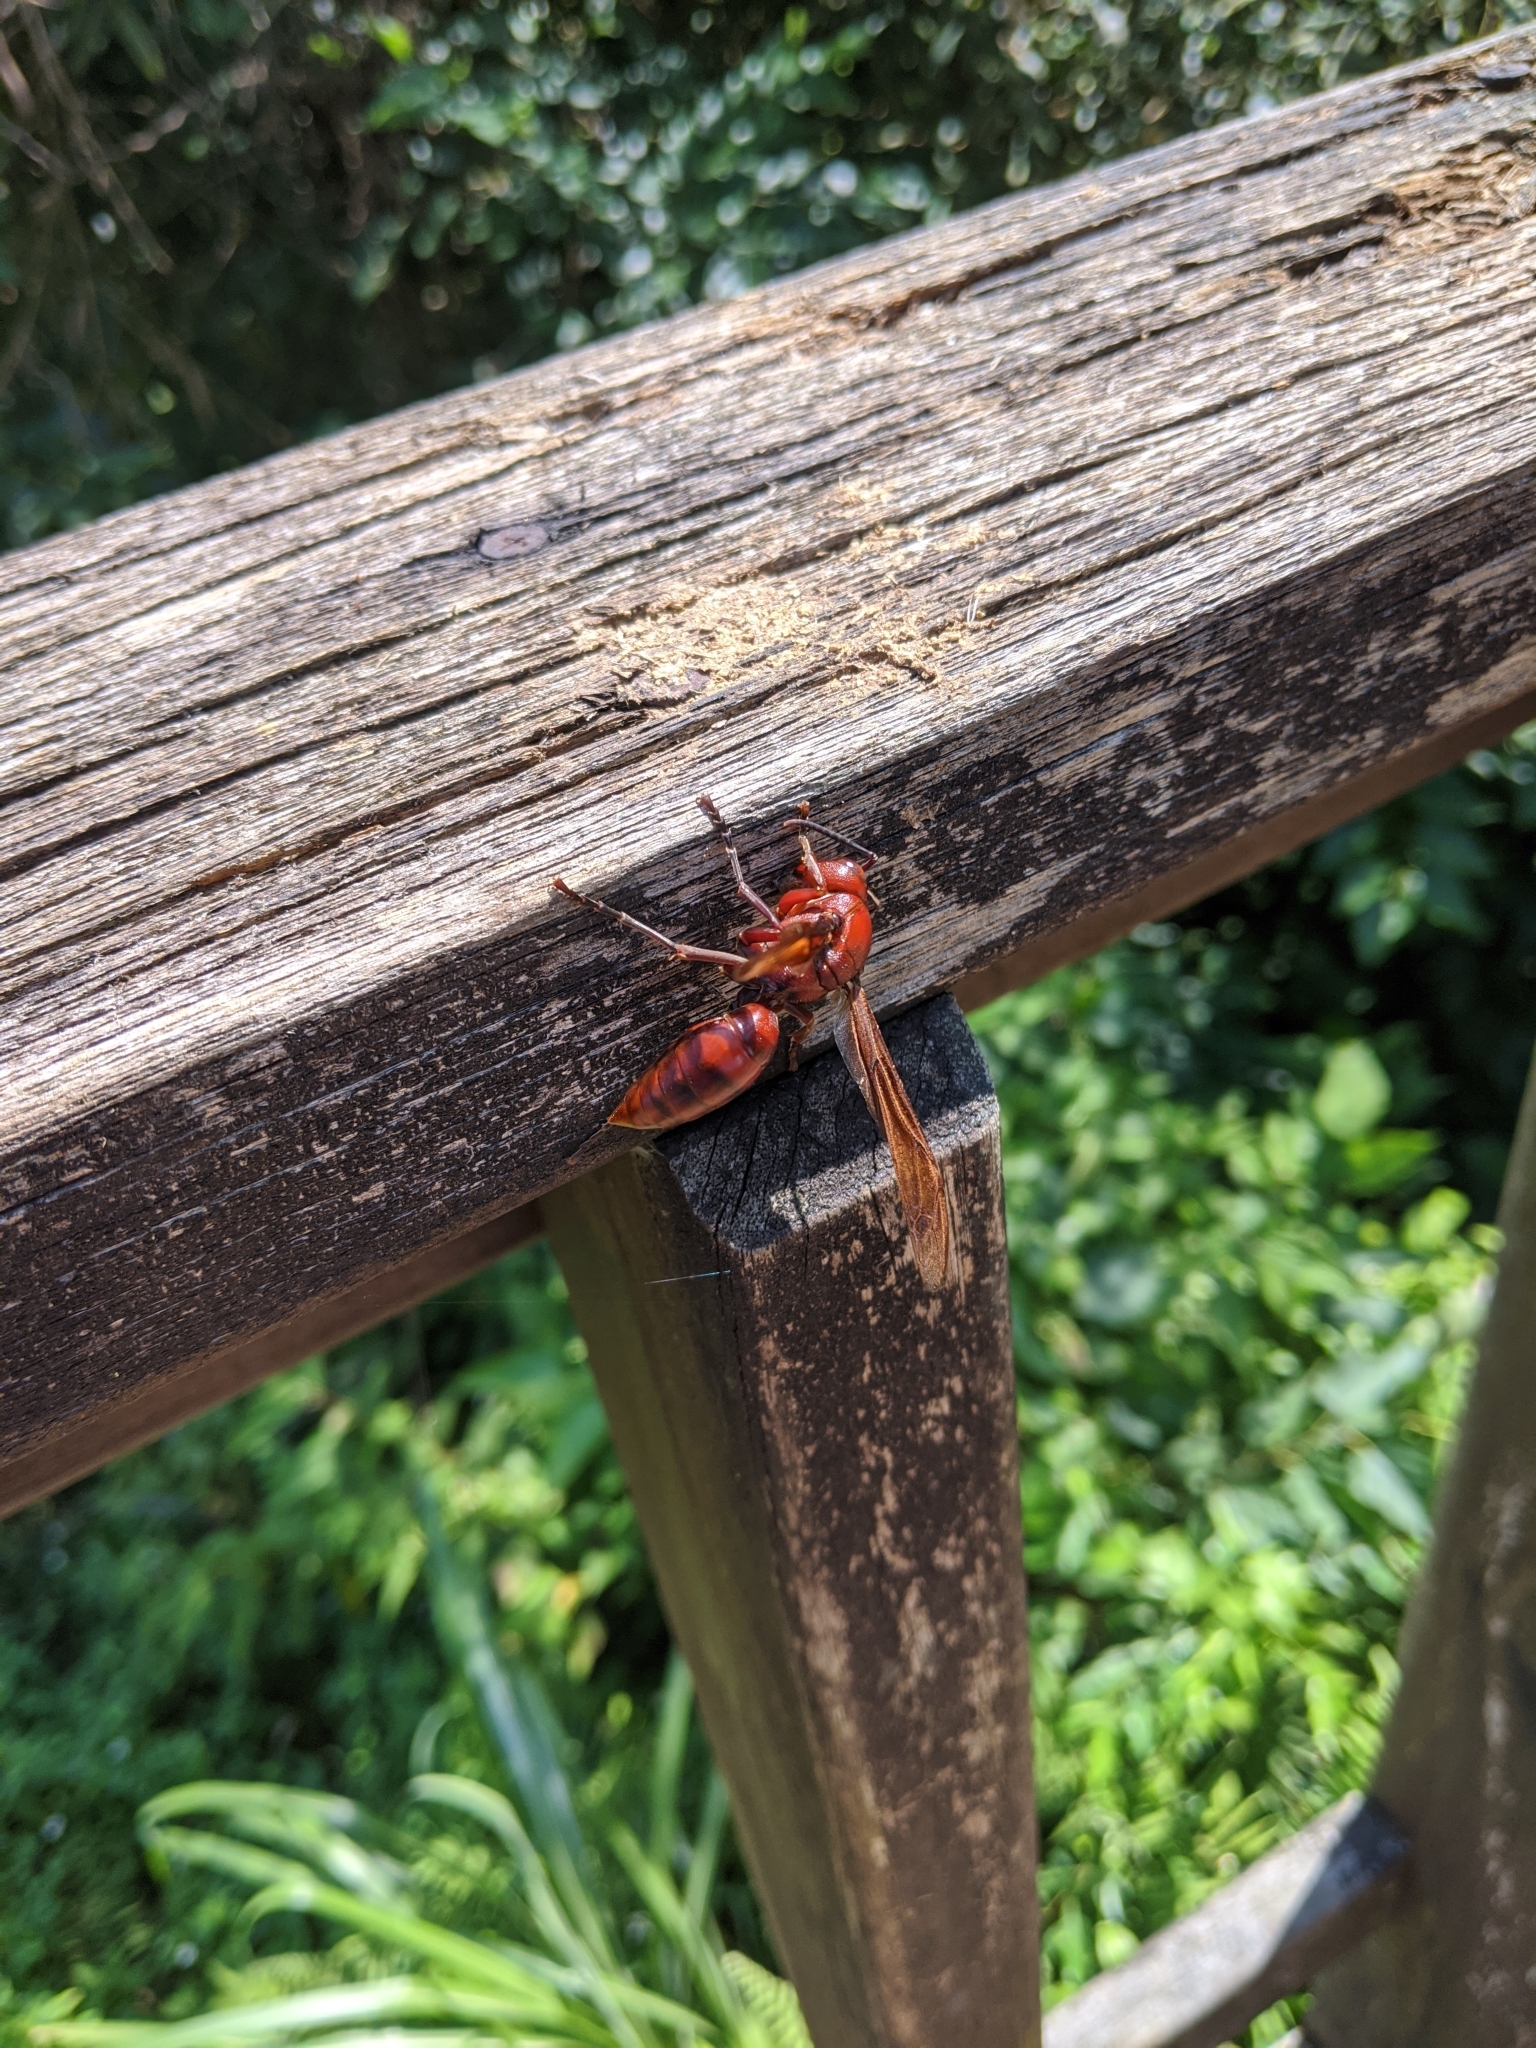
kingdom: Animalia
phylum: Arthropoda
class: Insecta
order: Hymenoptera
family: Eumenidae
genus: Polistes
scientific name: Polistes gigas
